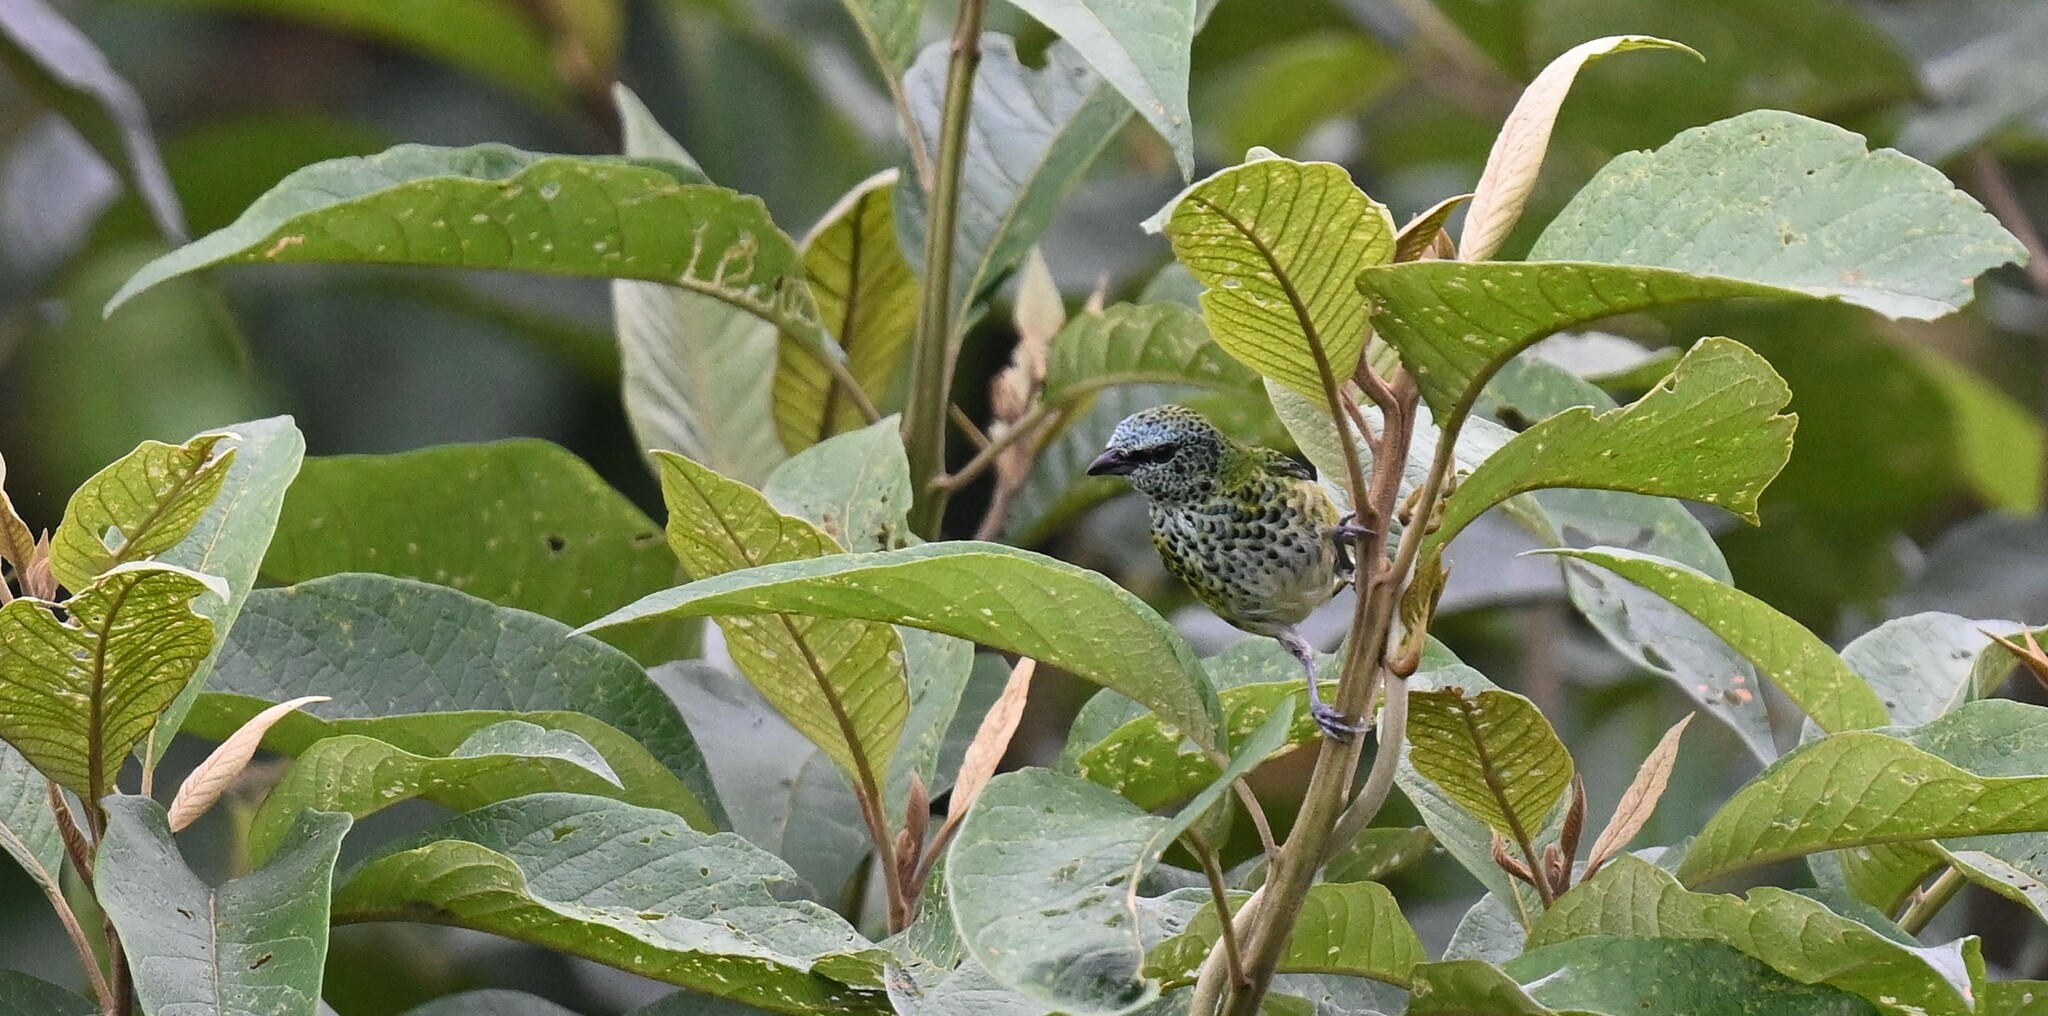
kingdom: Animalia
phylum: Chordata
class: Aves
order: Passeriformes
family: Thraupidae
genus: Ixothraupis
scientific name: Ixothraupis punctata
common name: Spotted tanager
